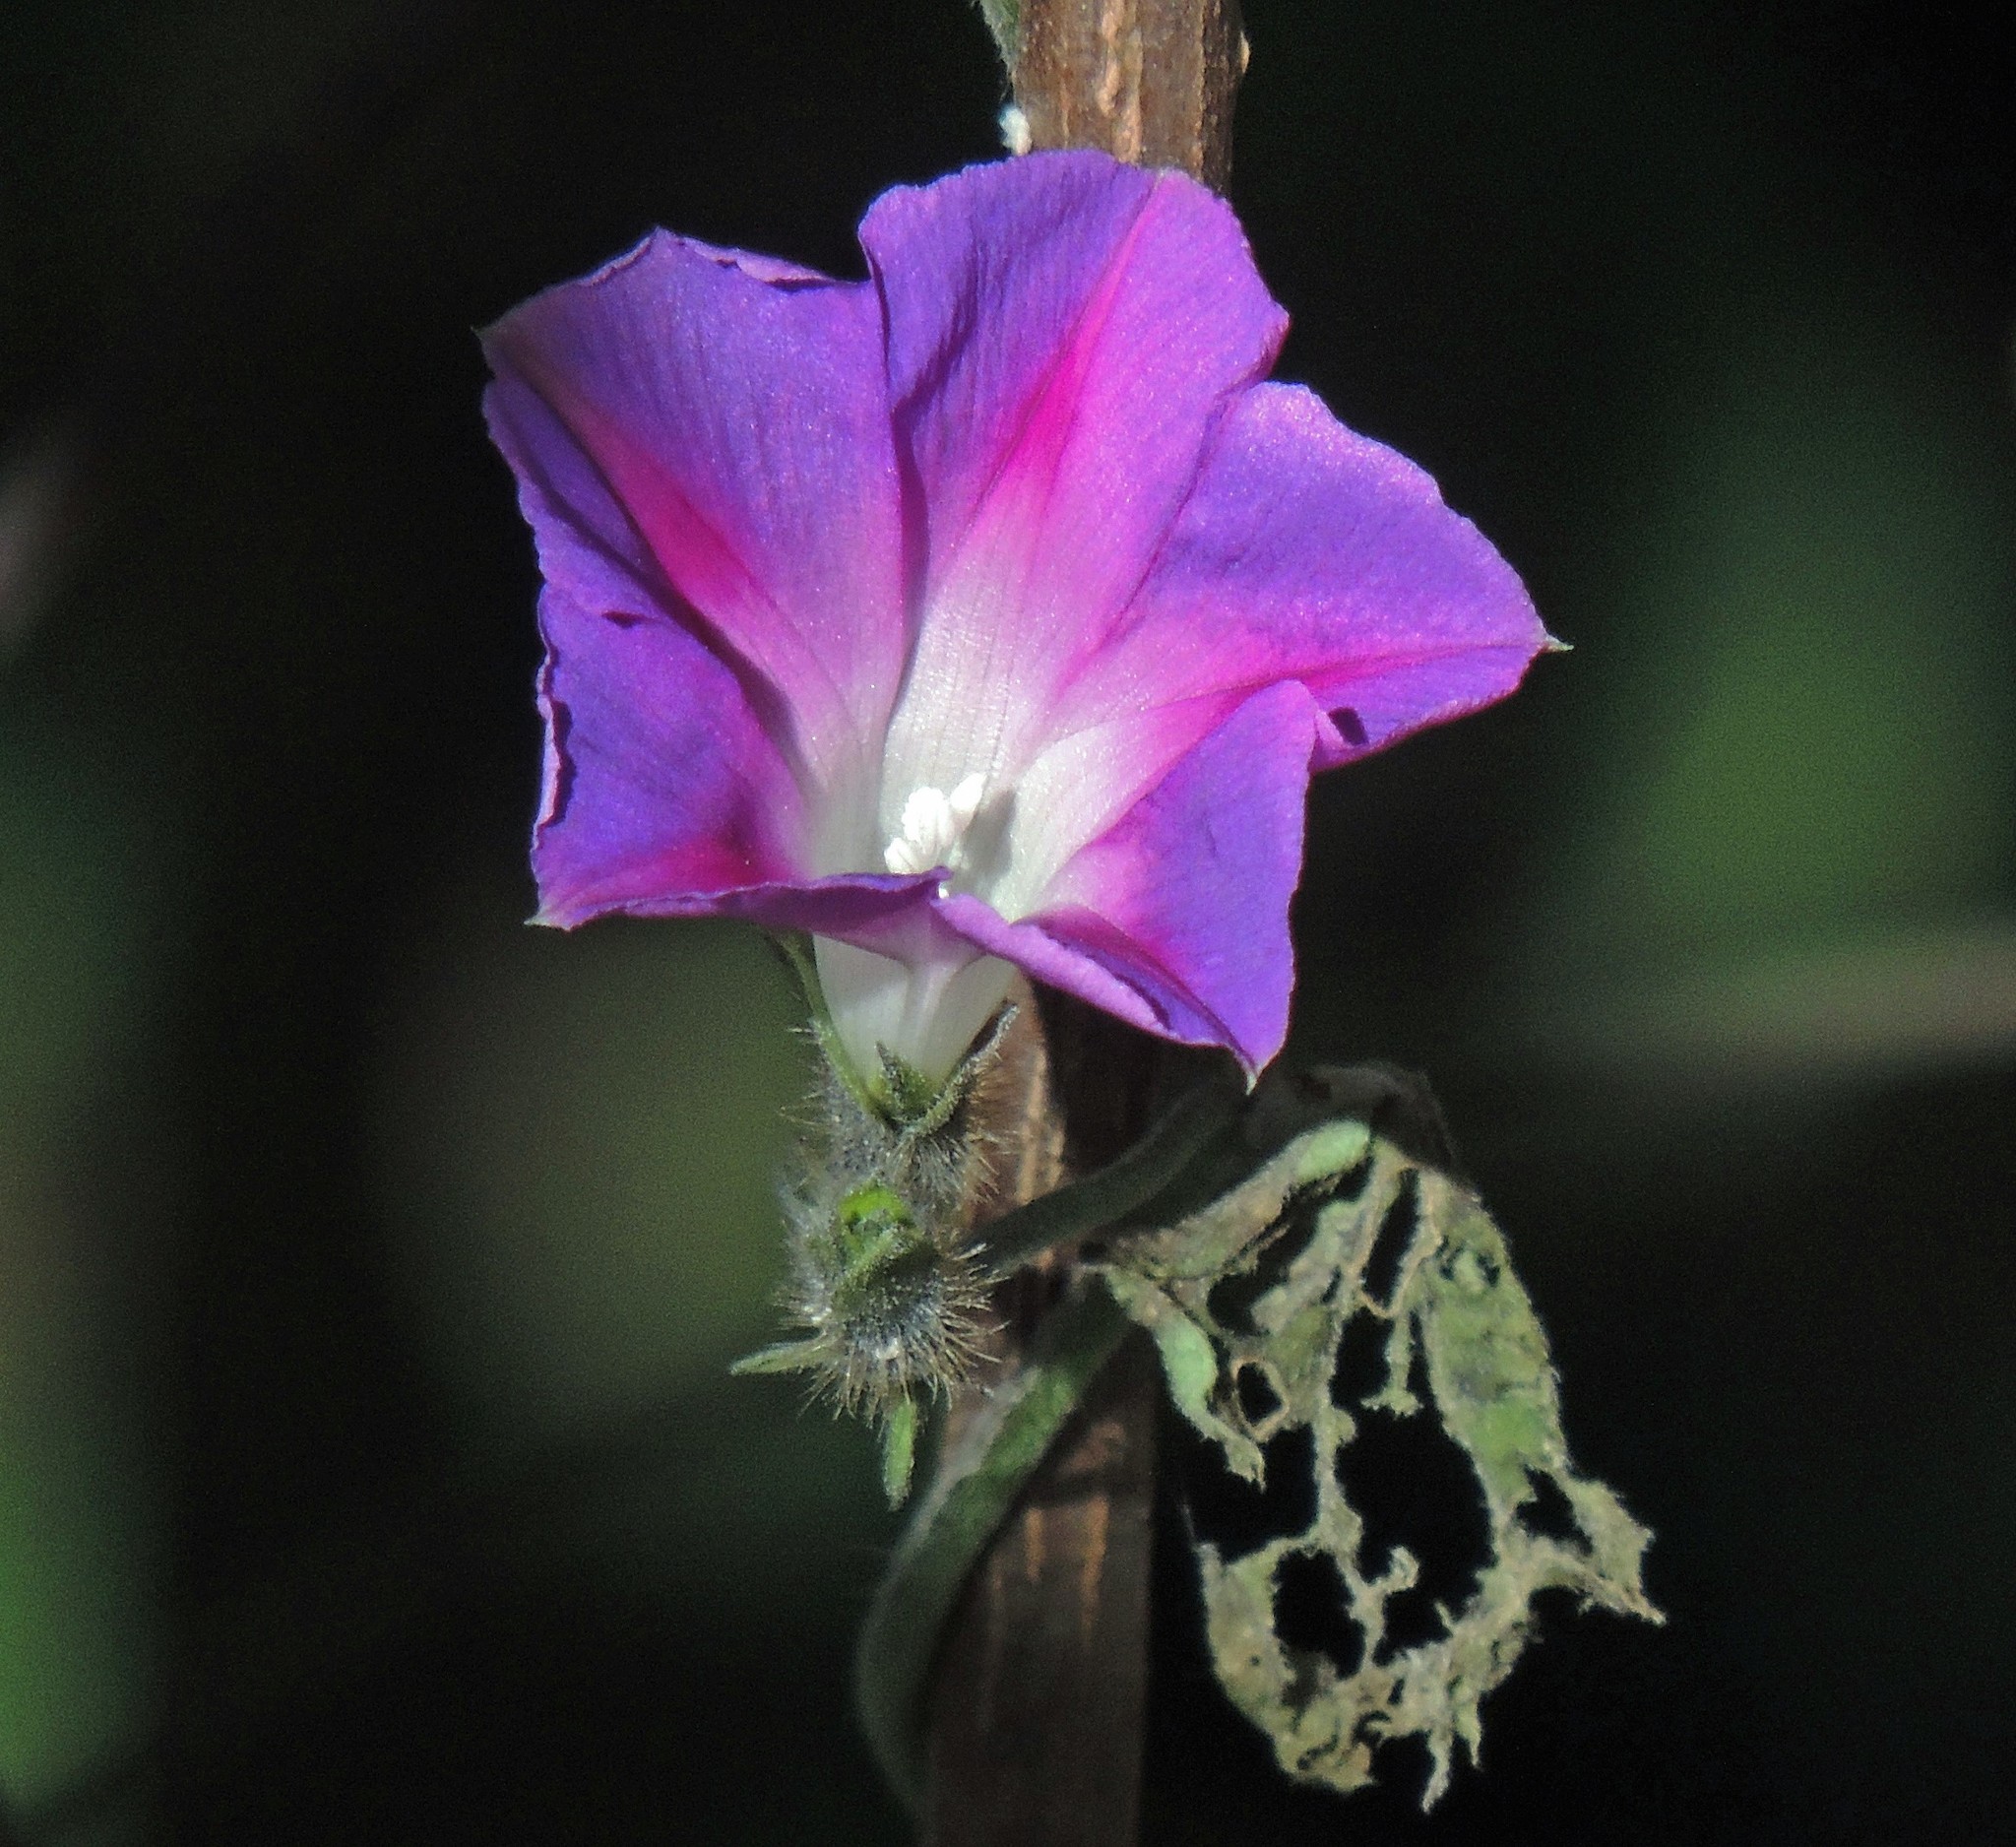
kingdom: Plantae
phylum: Tracheophyta
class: Magnoliopsida
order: Solanales
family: Convolvulaceae
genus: Ipomoea
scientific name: Ipomoea purpurea
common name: Common morning-glory
